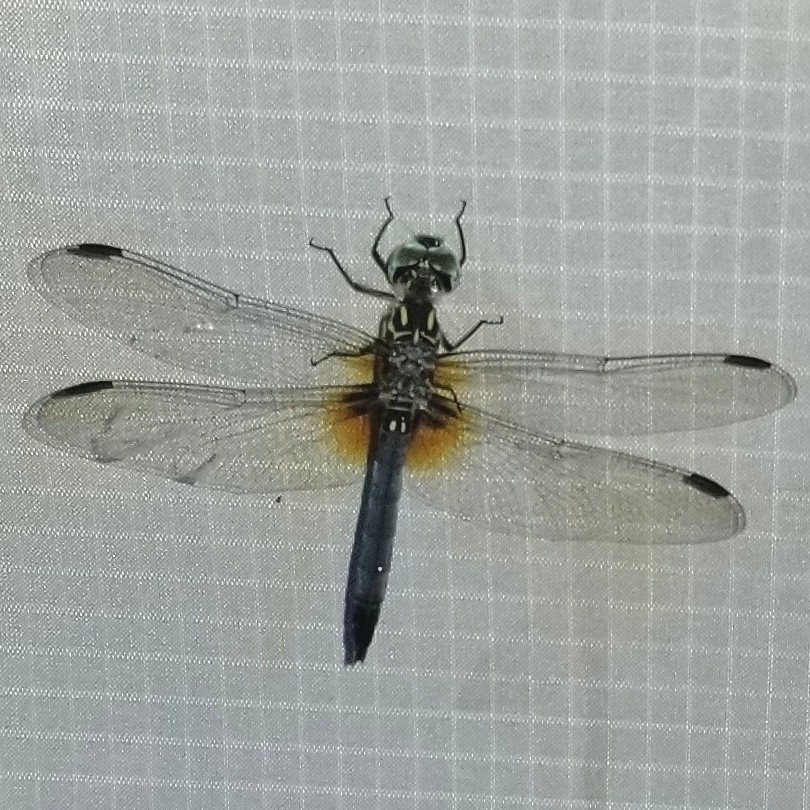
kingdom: Animalia
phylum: Arthropoda
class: Insecta
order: Odonata
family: Libellulidae
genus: Pachydiplax
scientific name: Pachydiplax longipennis
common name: Blue dasher
